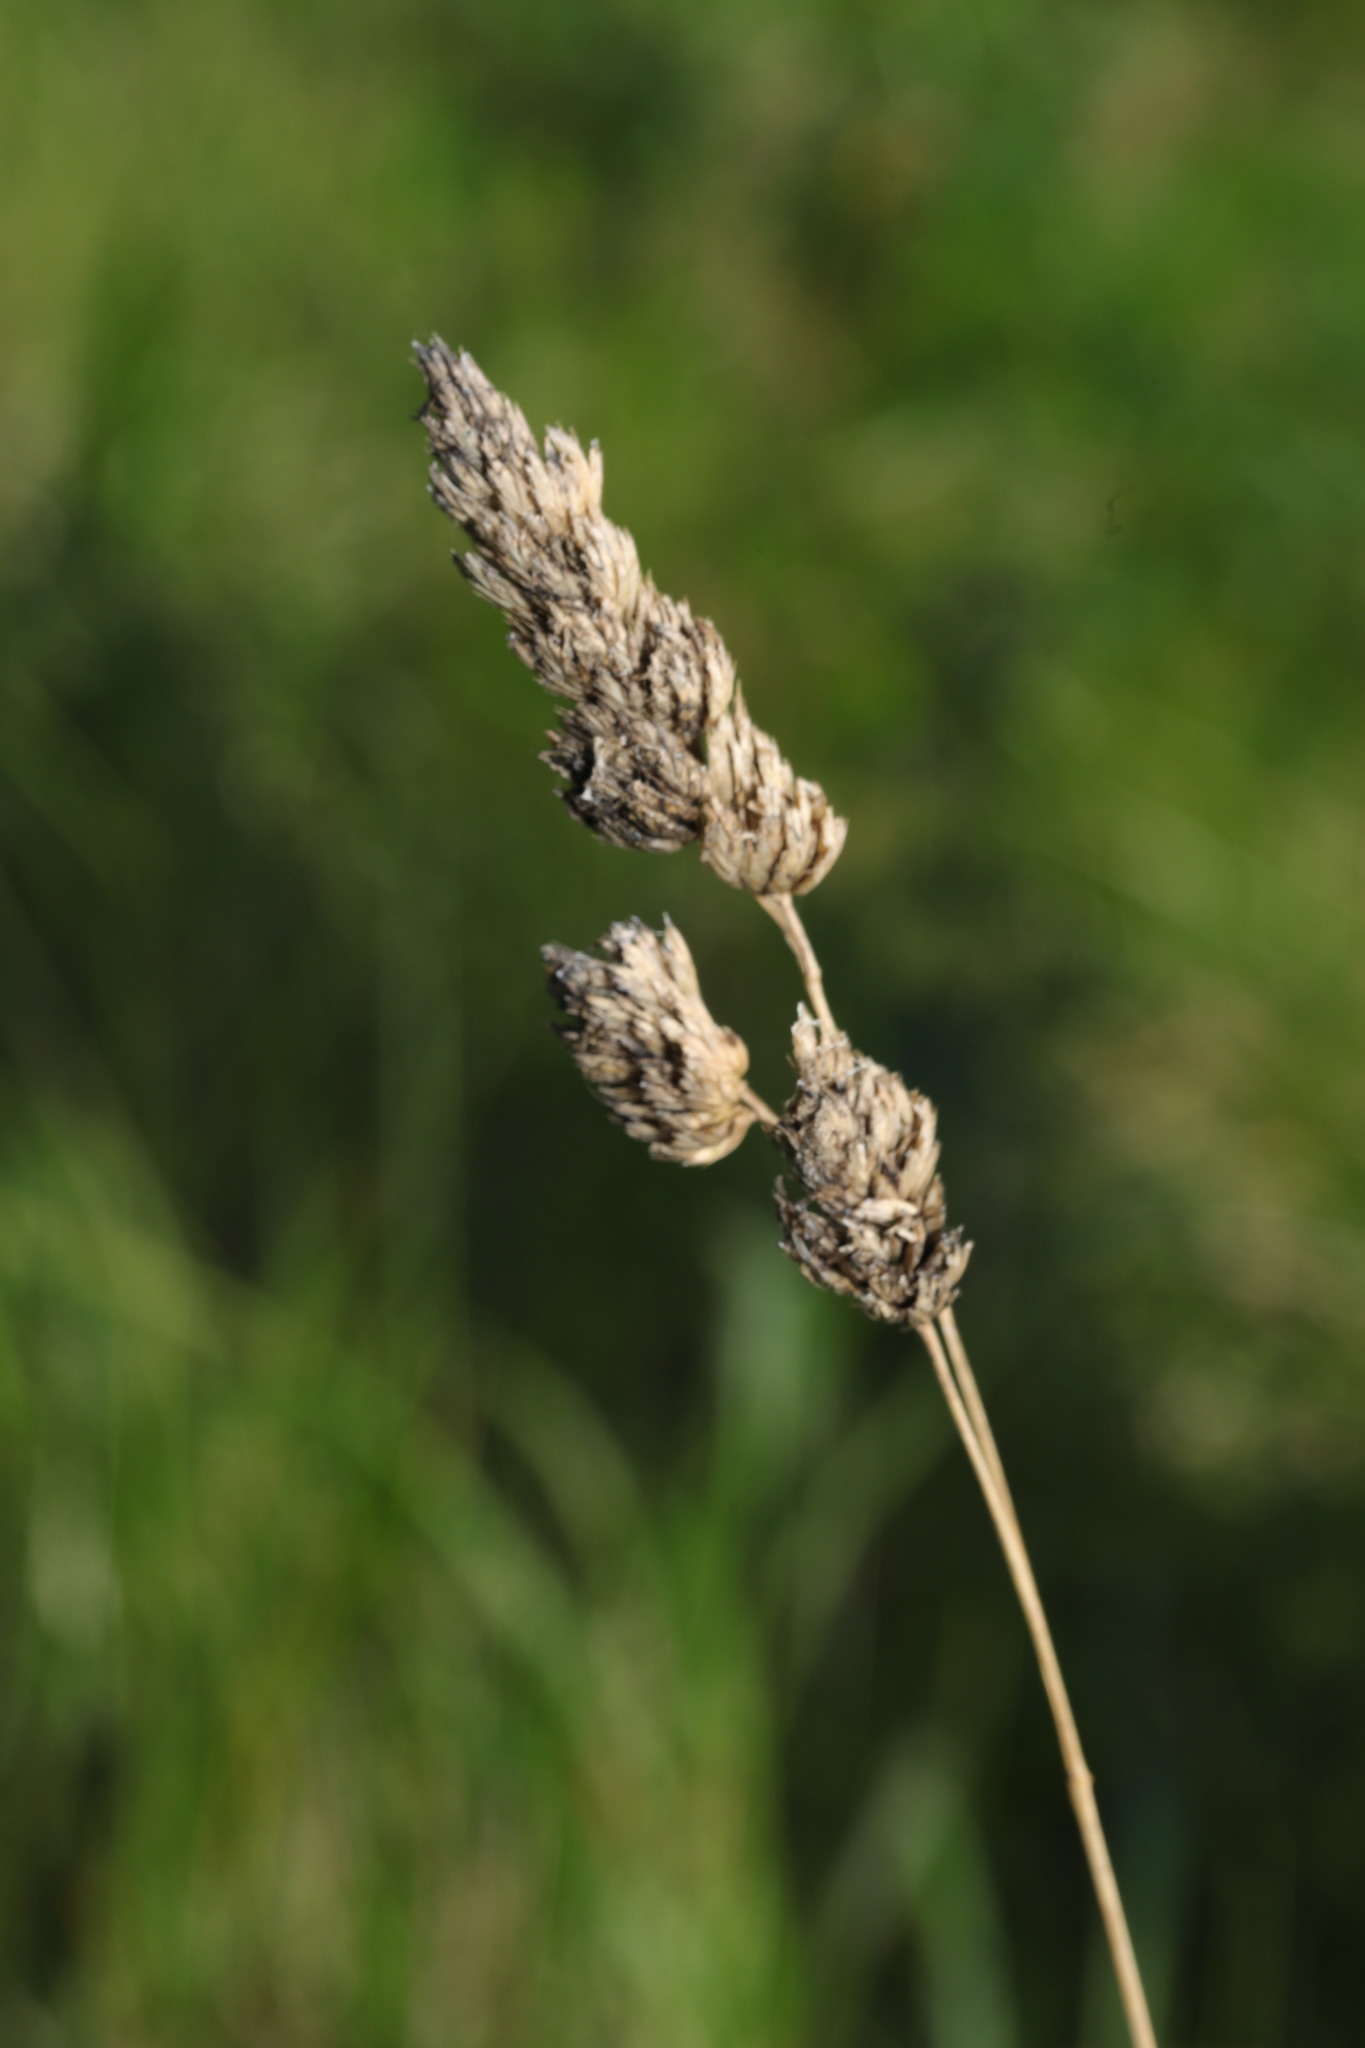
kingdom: Plantae
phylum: Tracheophyta
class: Liliopsida
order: Poales
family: Poaceae
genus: Dactylis
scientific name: Dactylis glomerata
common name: Orchardgrass
